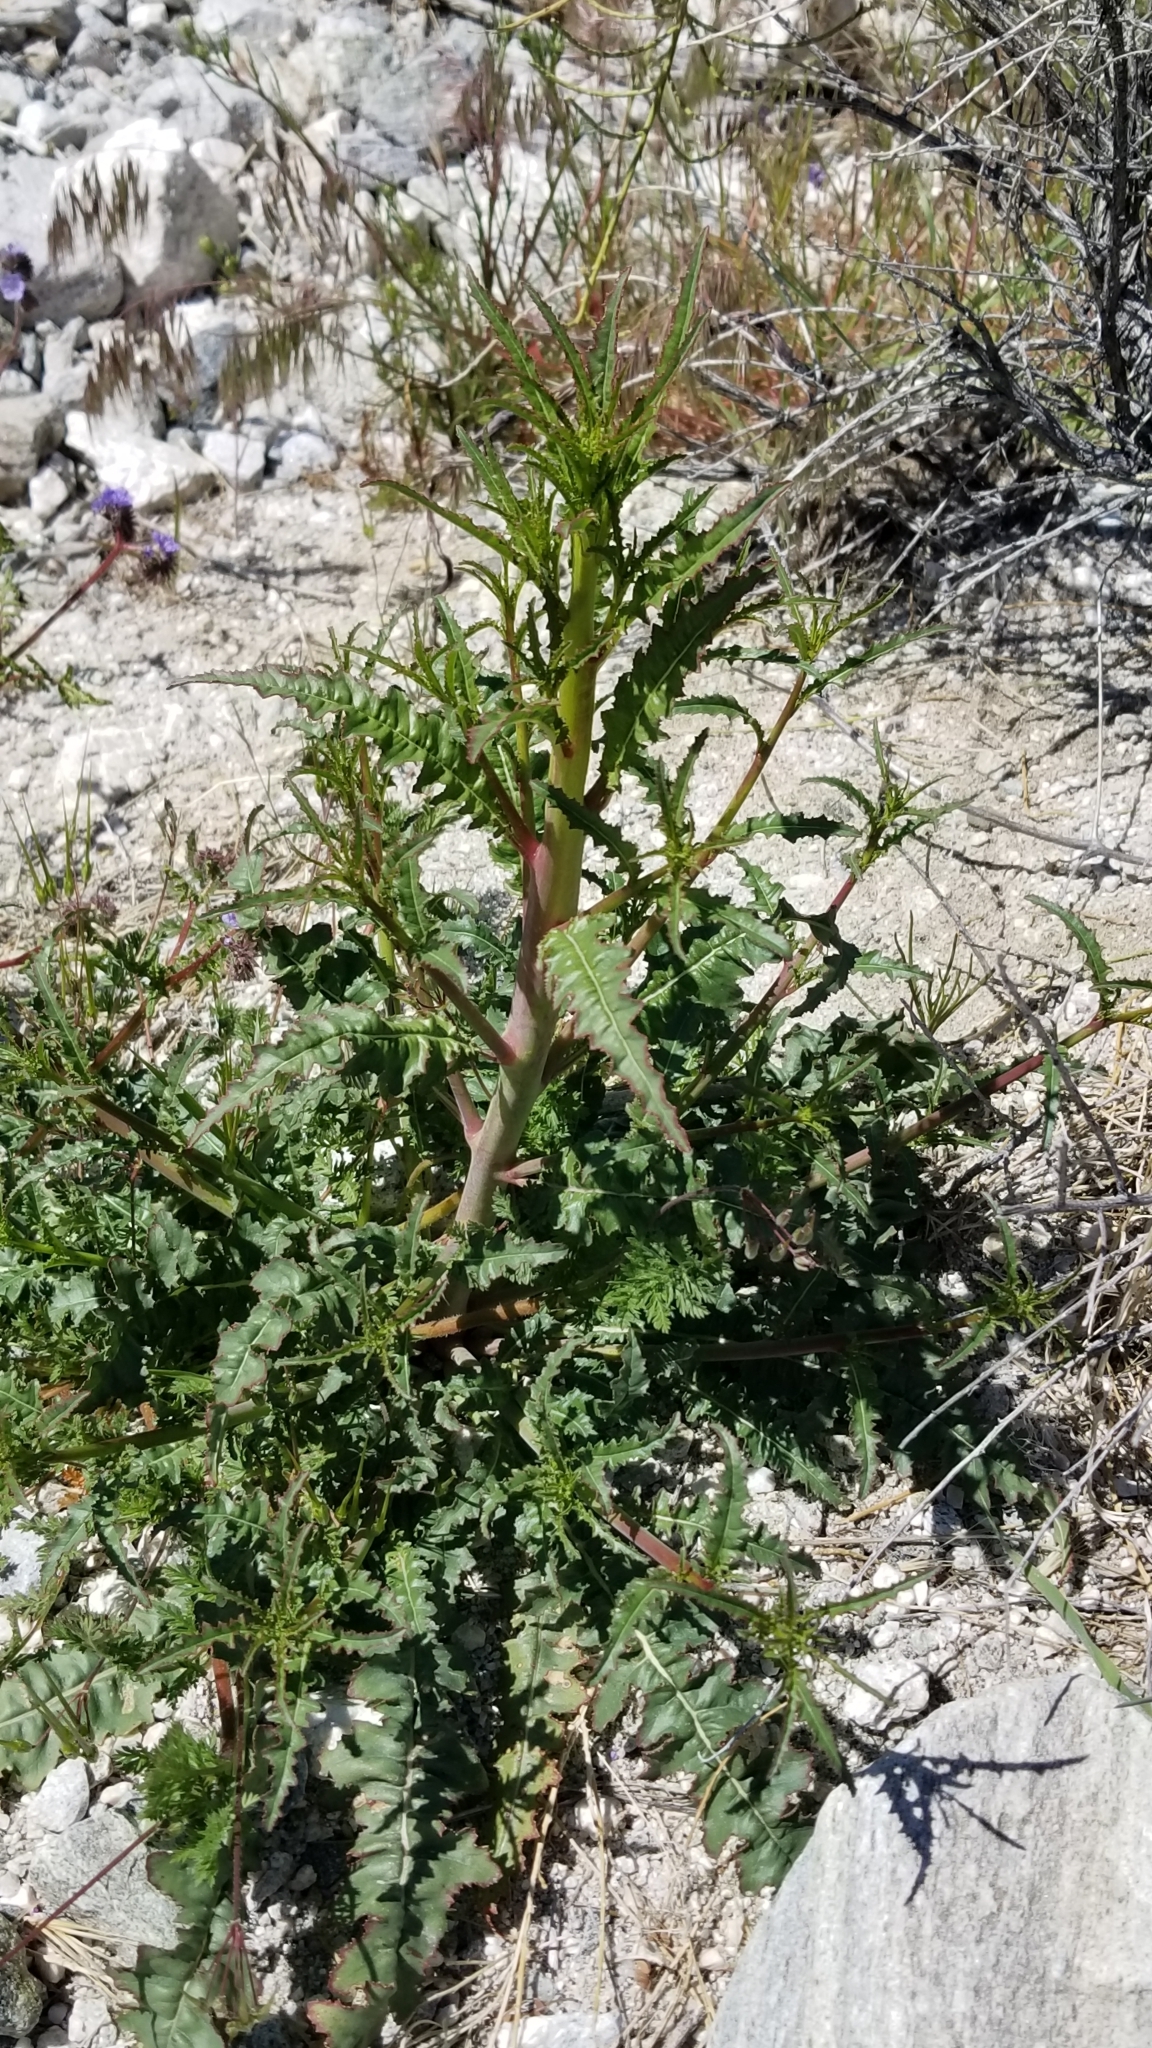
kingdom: Plantae
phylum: Tracheophyta
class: Magnoliopsida
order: Myrtales
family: Onagraceae
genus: Eulobus
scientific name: Eulobus californicus
